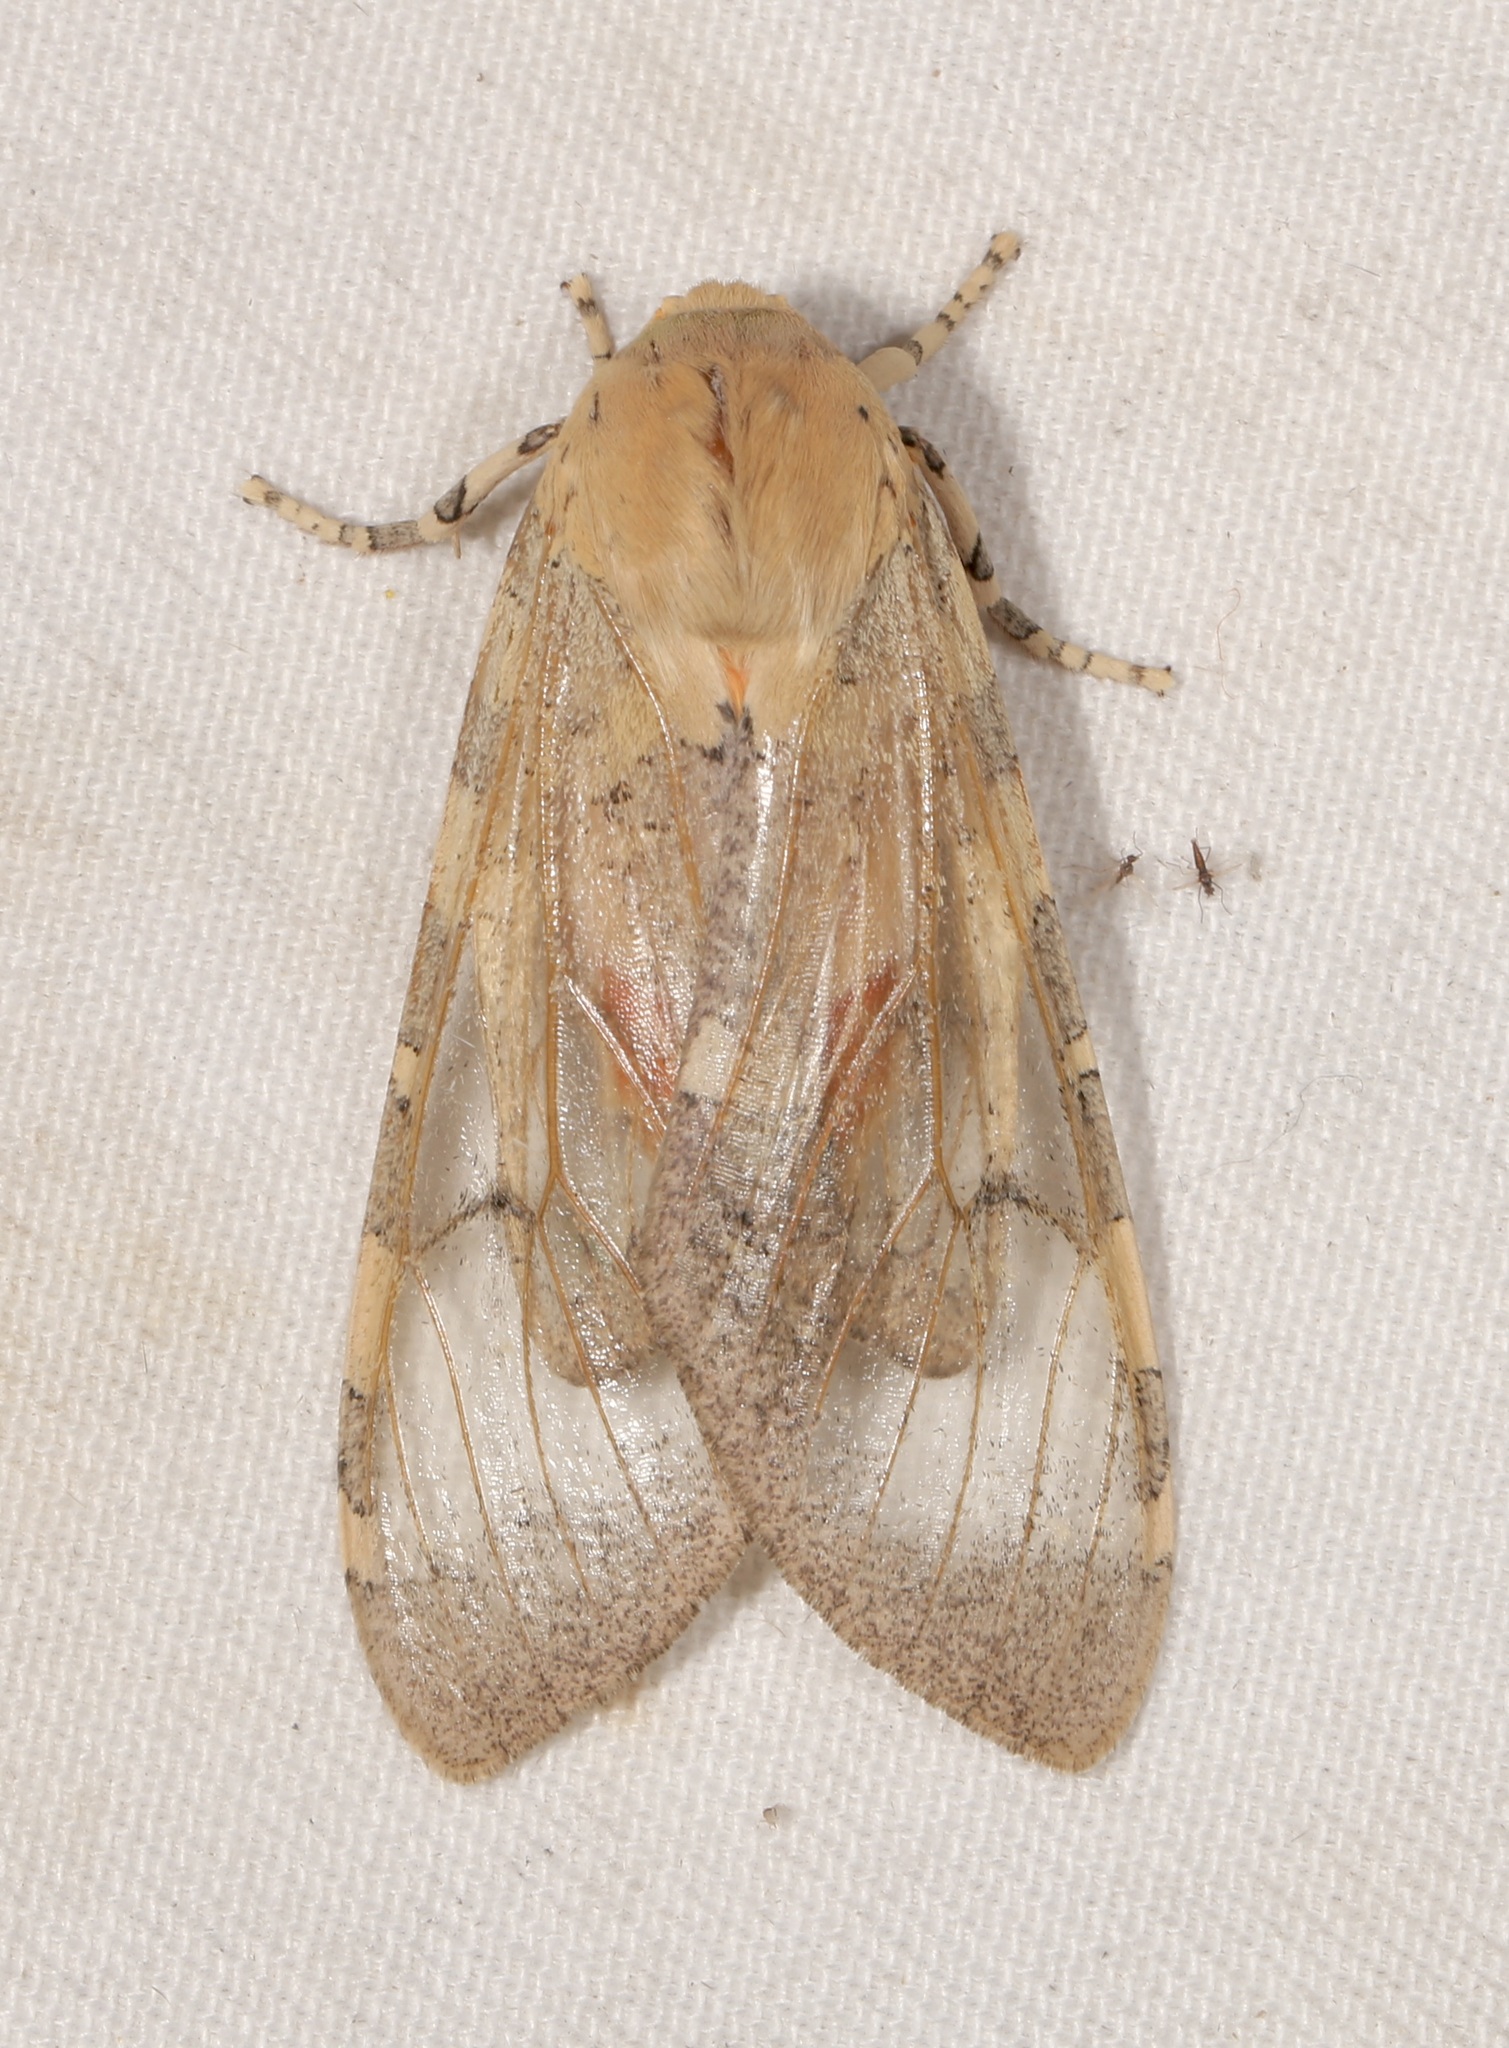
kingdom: Animalia
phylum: Arthropoda
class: Insecta
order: Lepidoptera
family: Erebidae
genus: Hemihyalea
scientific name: Hemihyalea edwardsii
